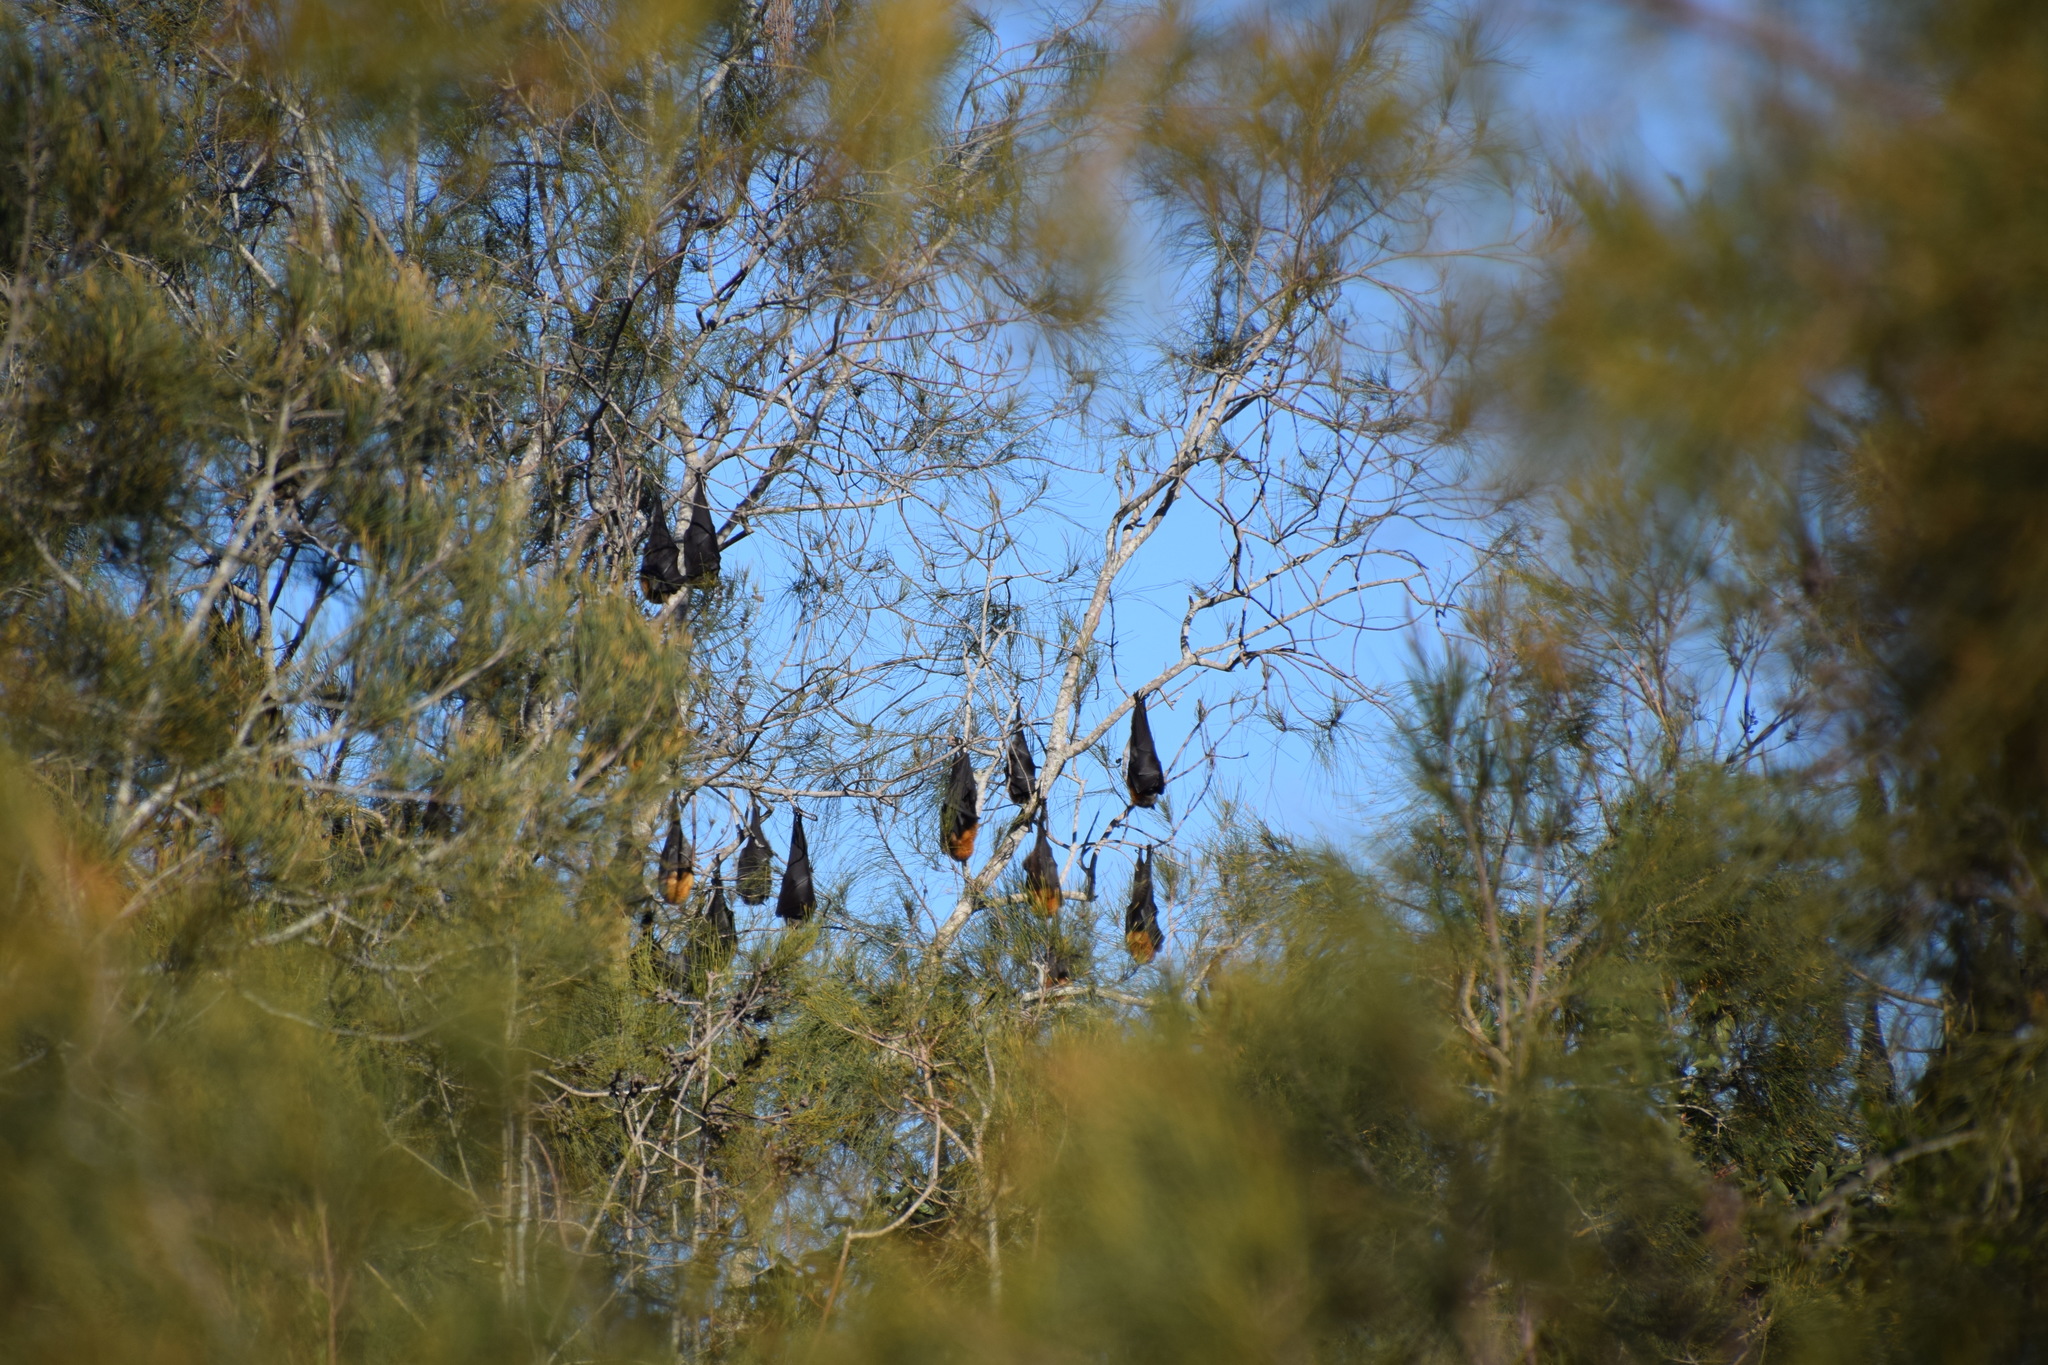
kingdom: Animalia
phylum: Chordata
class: Mammalia
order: Chiroptera
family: Pteropodidae
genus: Pteropus
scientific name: Pteropus poliocephalus
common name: Gray-headed flying fox
